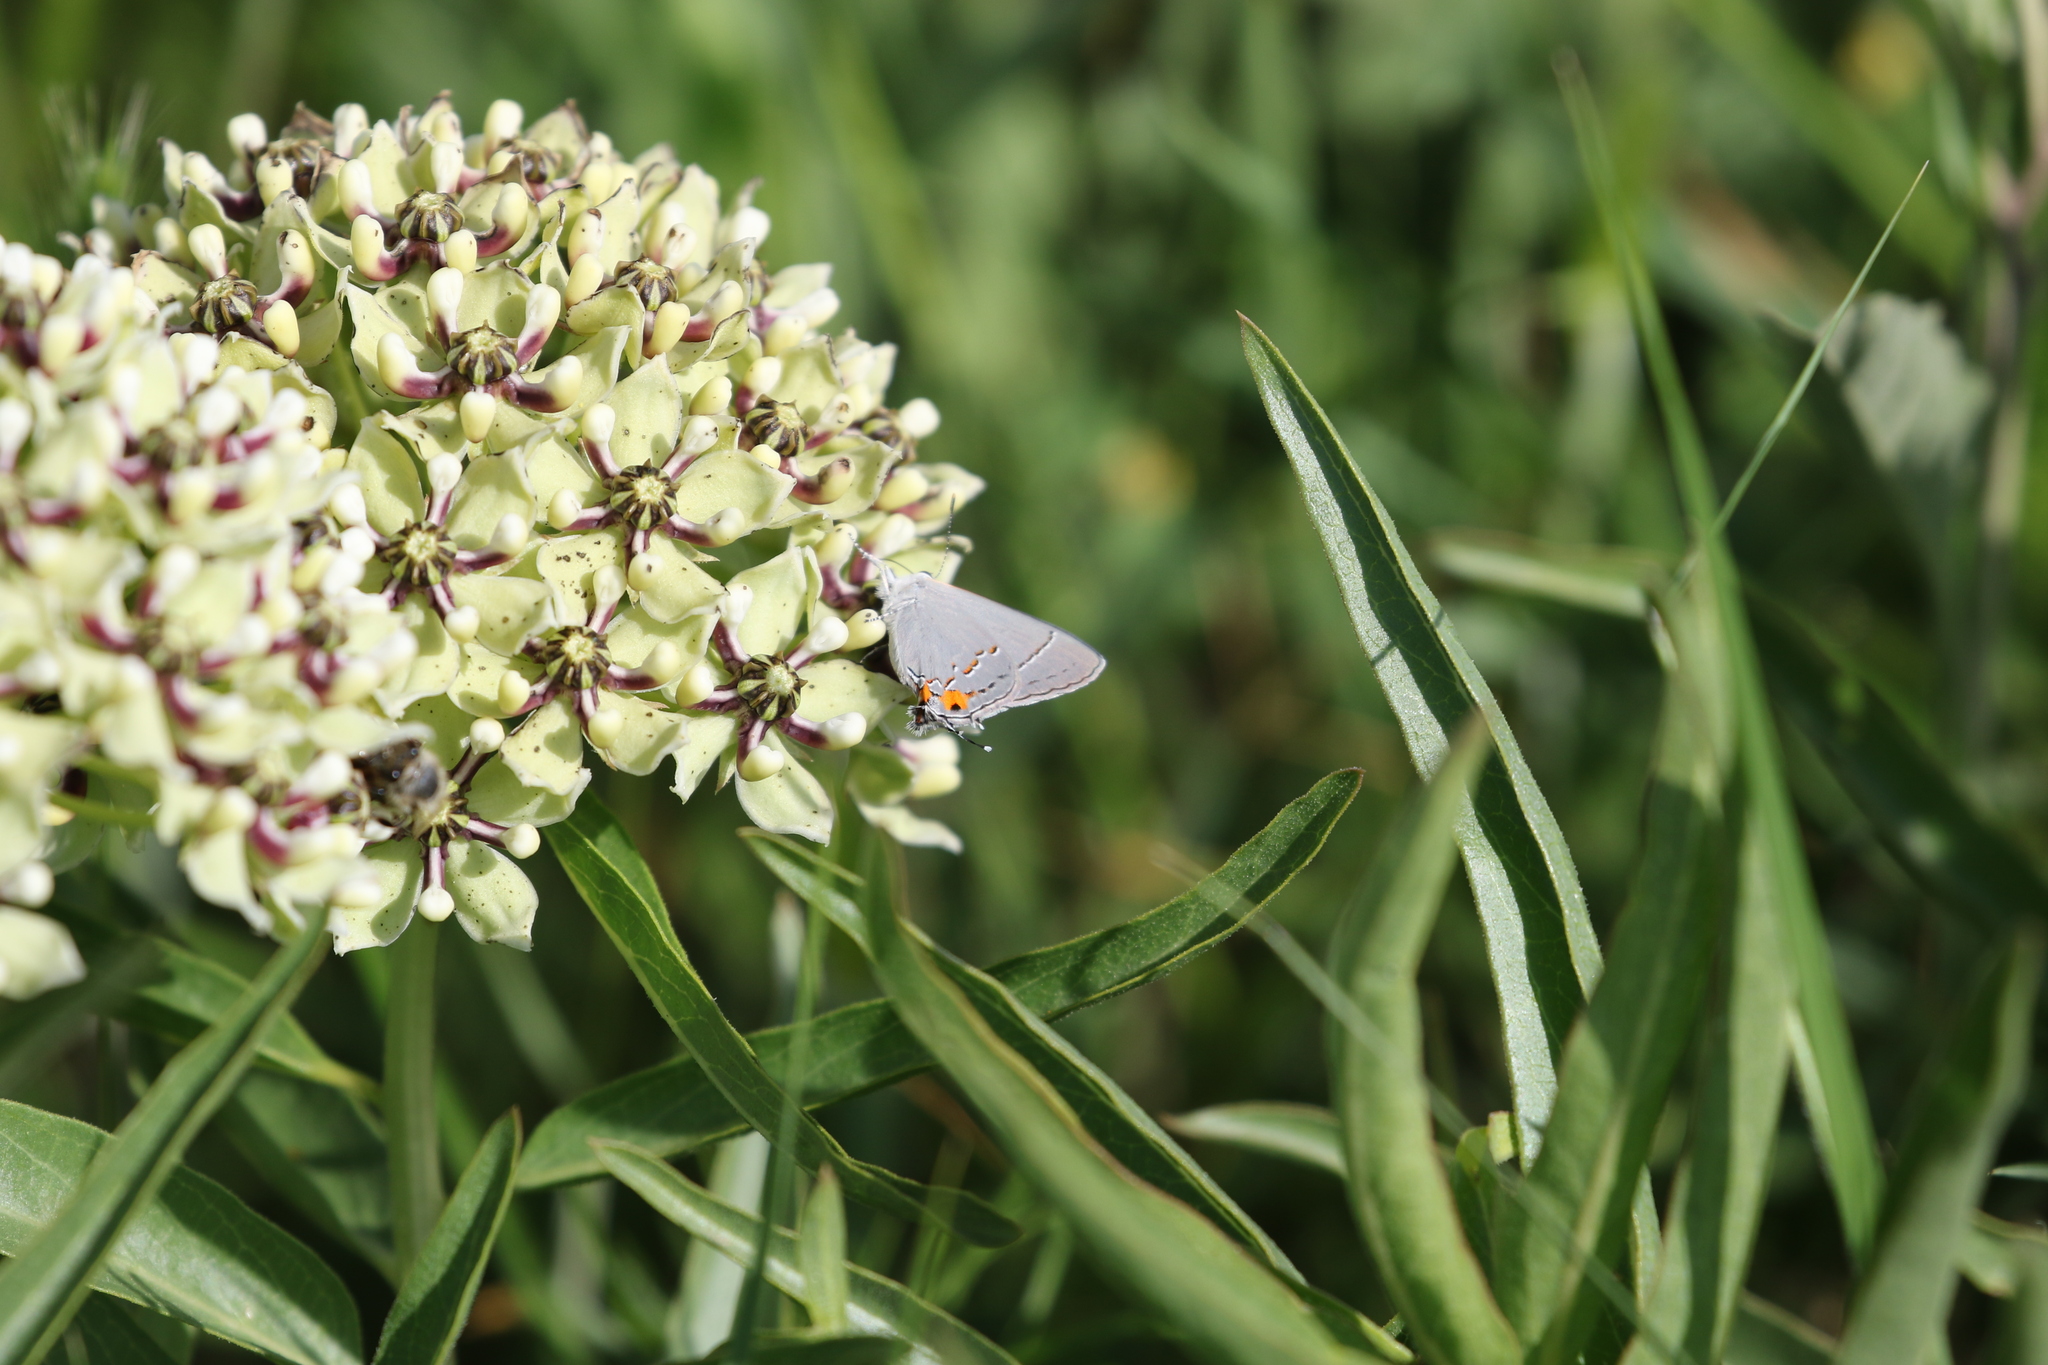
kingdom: Animalia
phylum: Arthropoda
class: Insecta
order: Lepidoptera
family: Lycaenidae
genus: Strymon
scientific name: Strymon melinus
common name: Gray hairstreak
